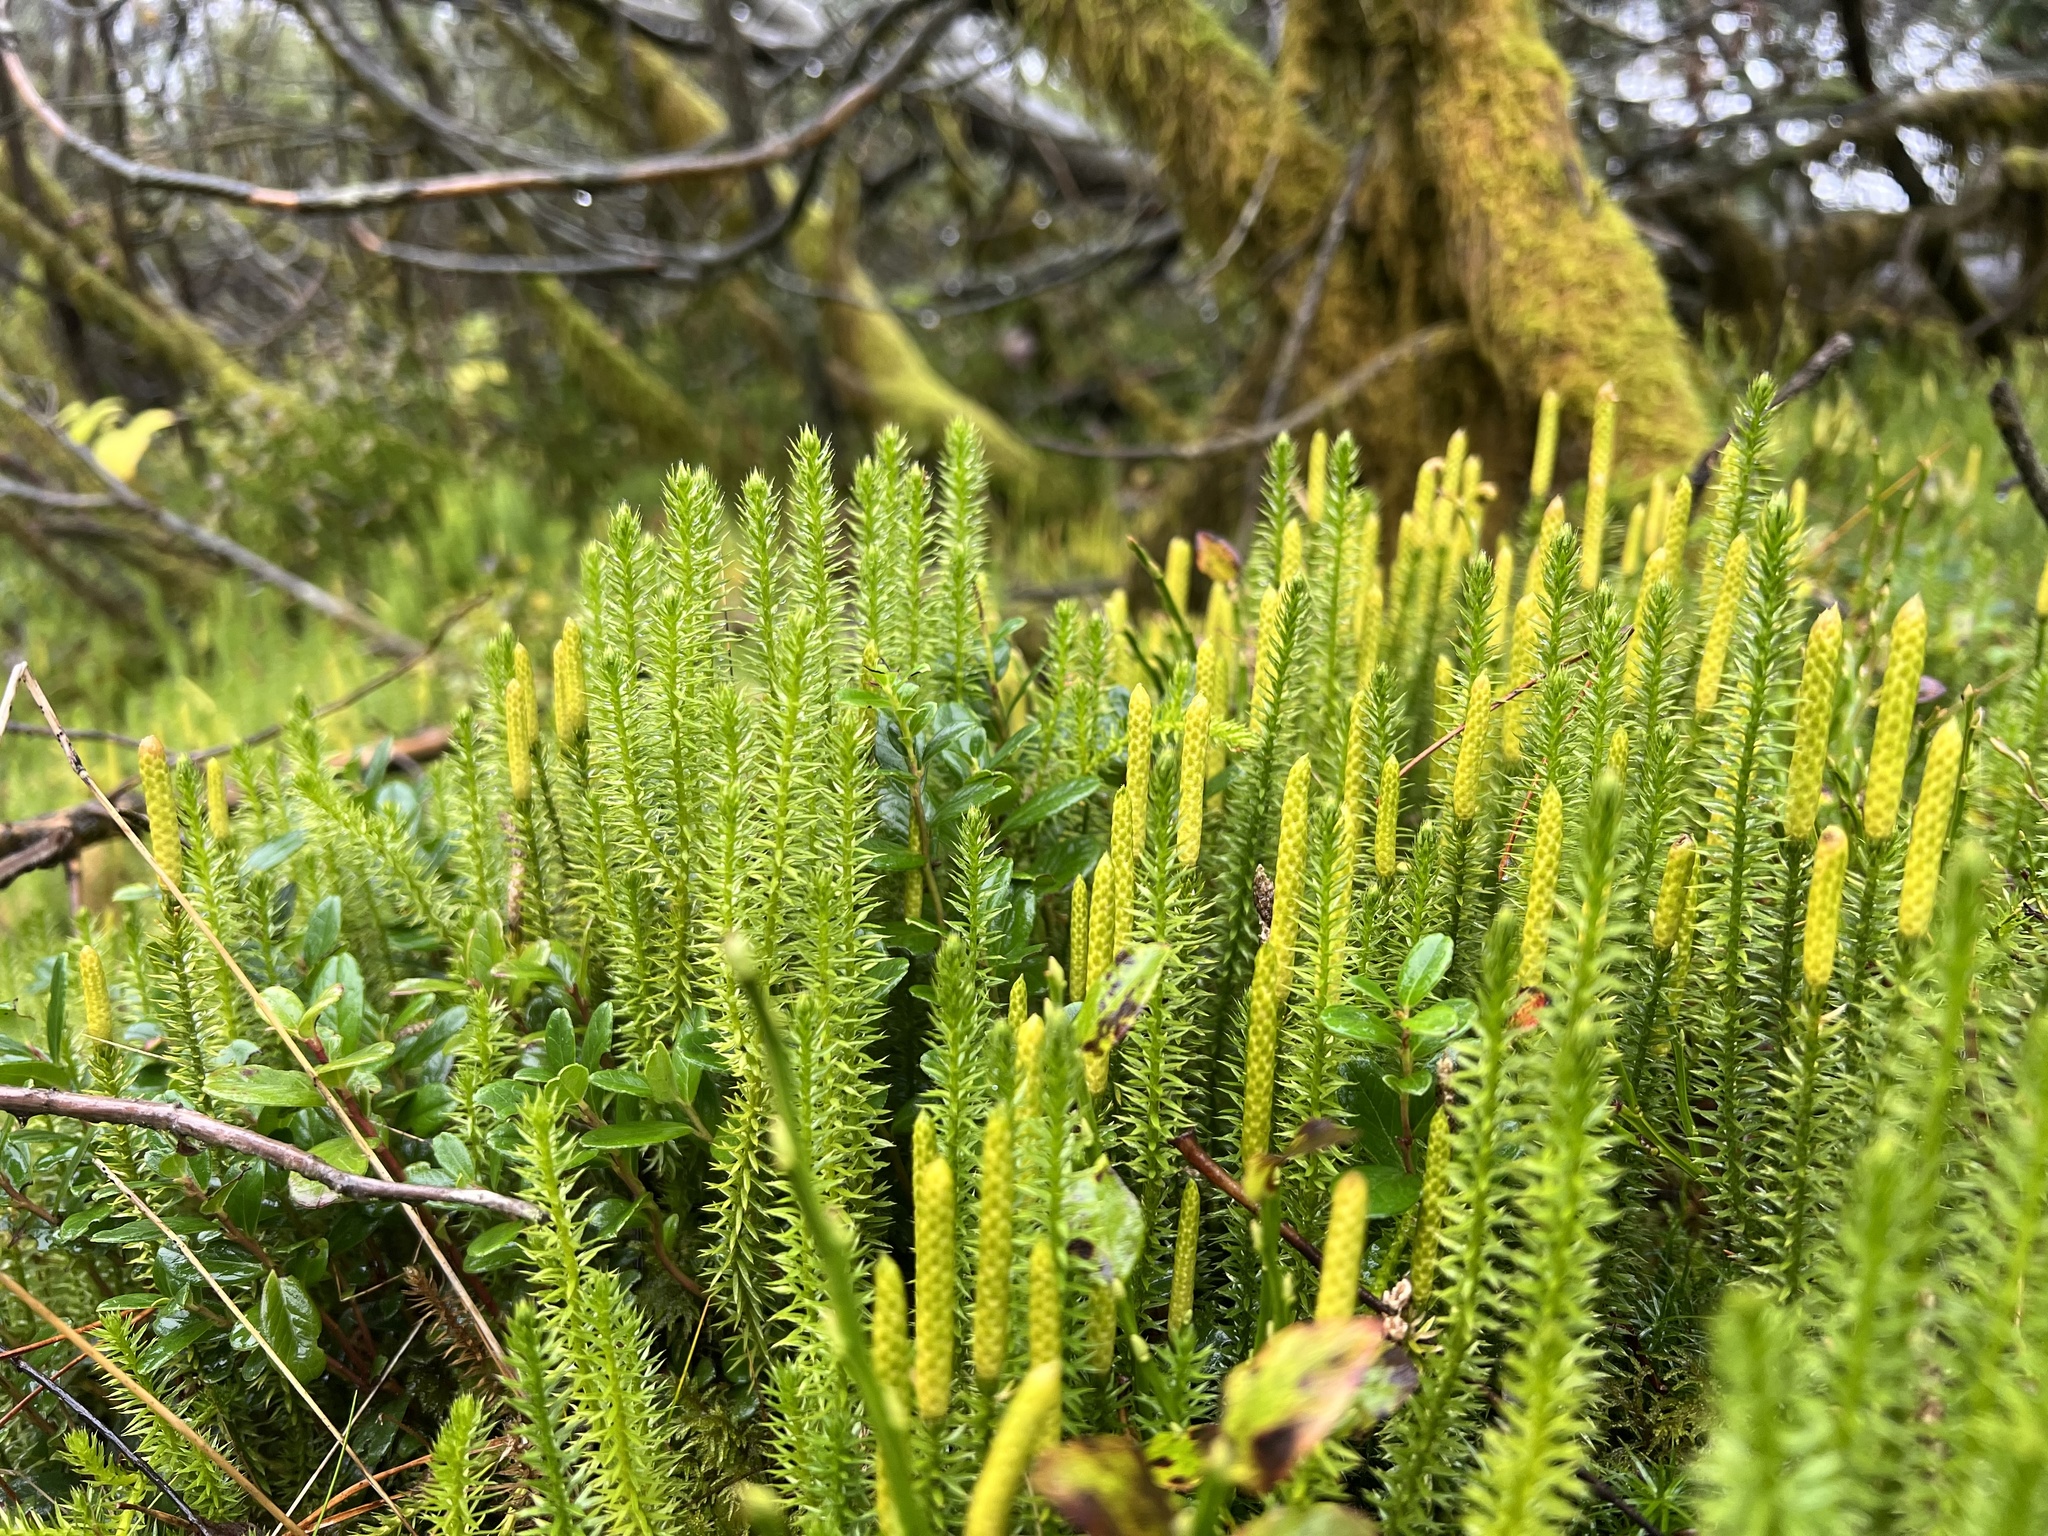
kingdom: Plantae
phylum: Tracheophyta
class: Lycopodiopsida
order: Lycopodiales
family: Lycopodiaceae
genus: Spinulum
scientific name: Spinulum annotinum
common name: Interrupted club-moss
